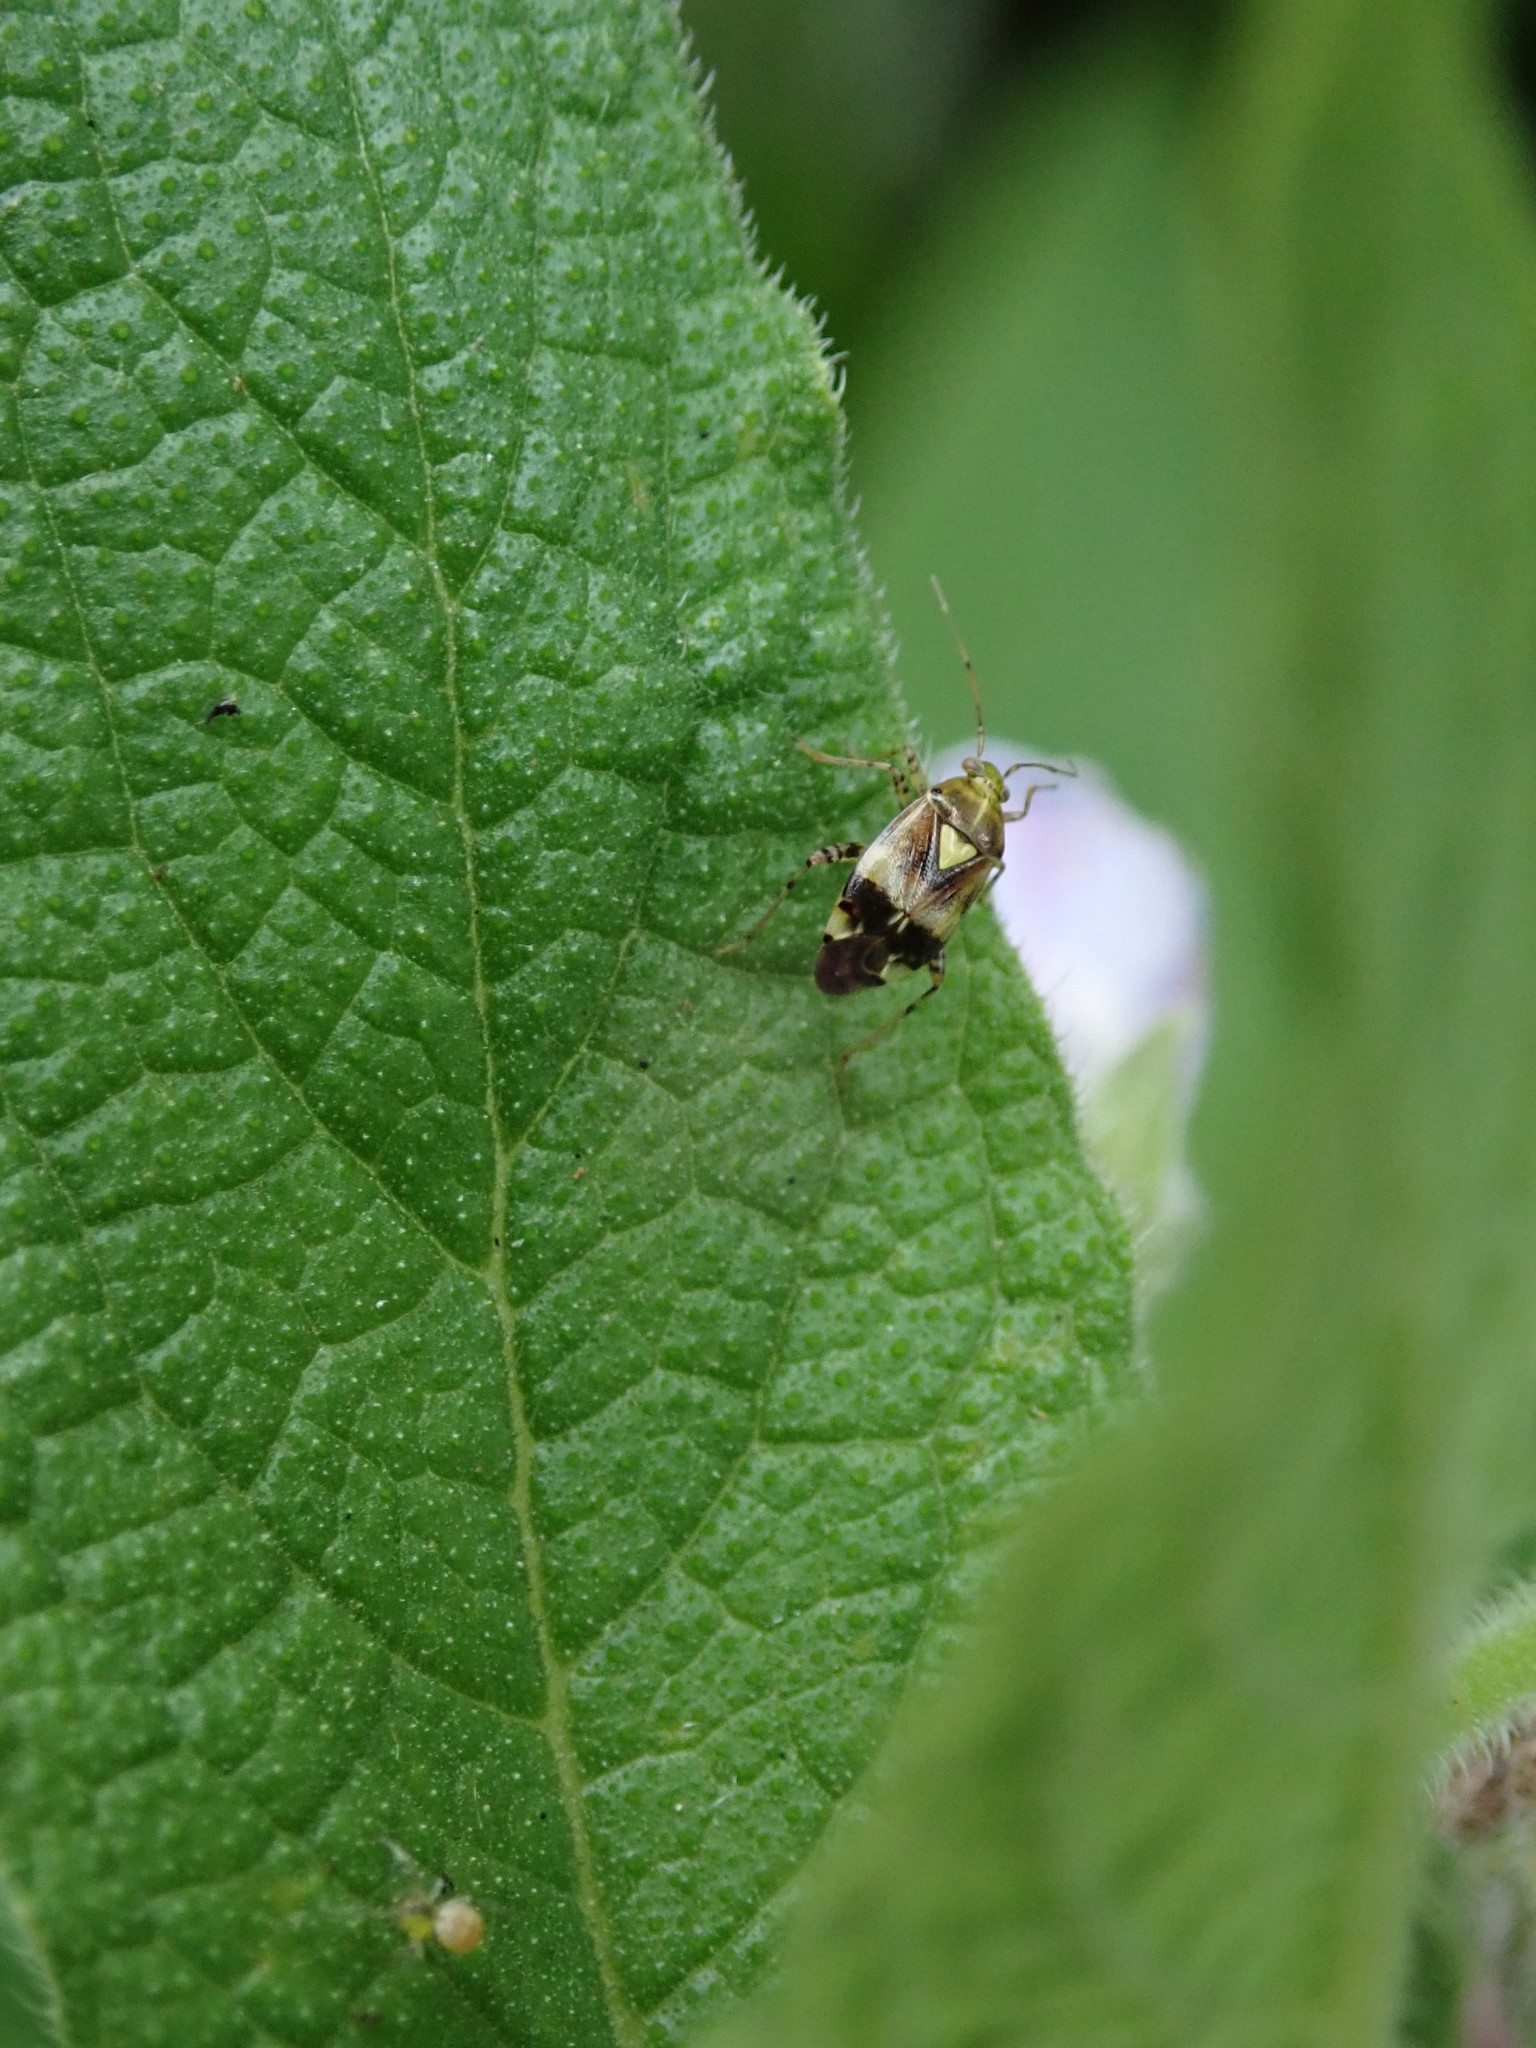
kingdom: Animalia
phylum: Arthropoda
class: Insecta
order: Hemiptera
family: Miridae
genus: Liocoris
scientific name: Liocoris tripustulatus
